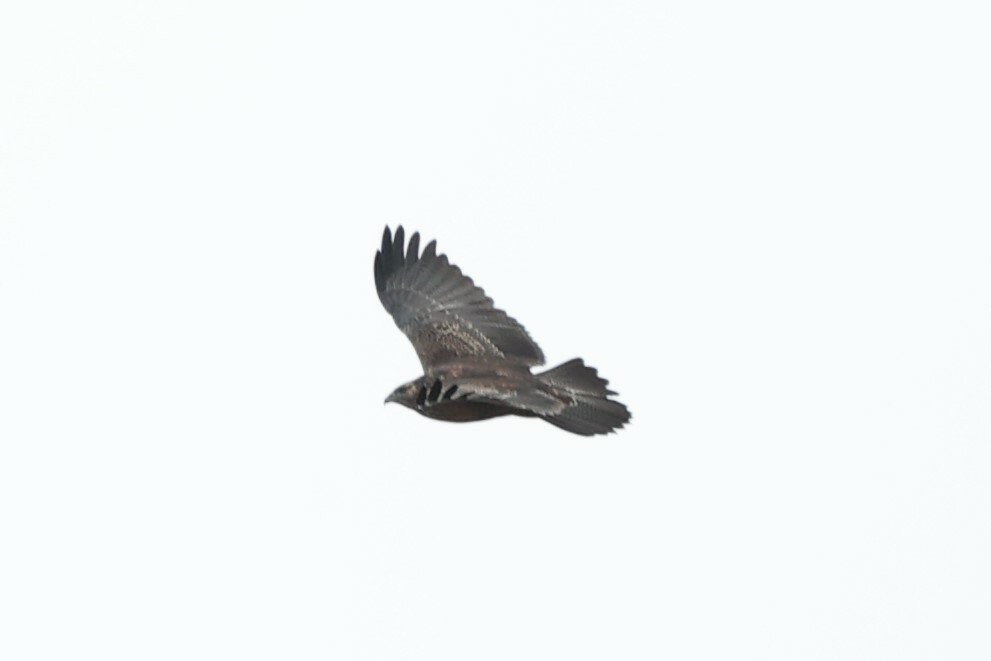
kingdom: Animalia
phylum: Chordata
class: Aves
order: Accipitriformes
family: Accipitridae
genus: Geranoaetus
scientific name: Geranoaetus melanoleucus
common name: Black-chested buzzard-eagle
